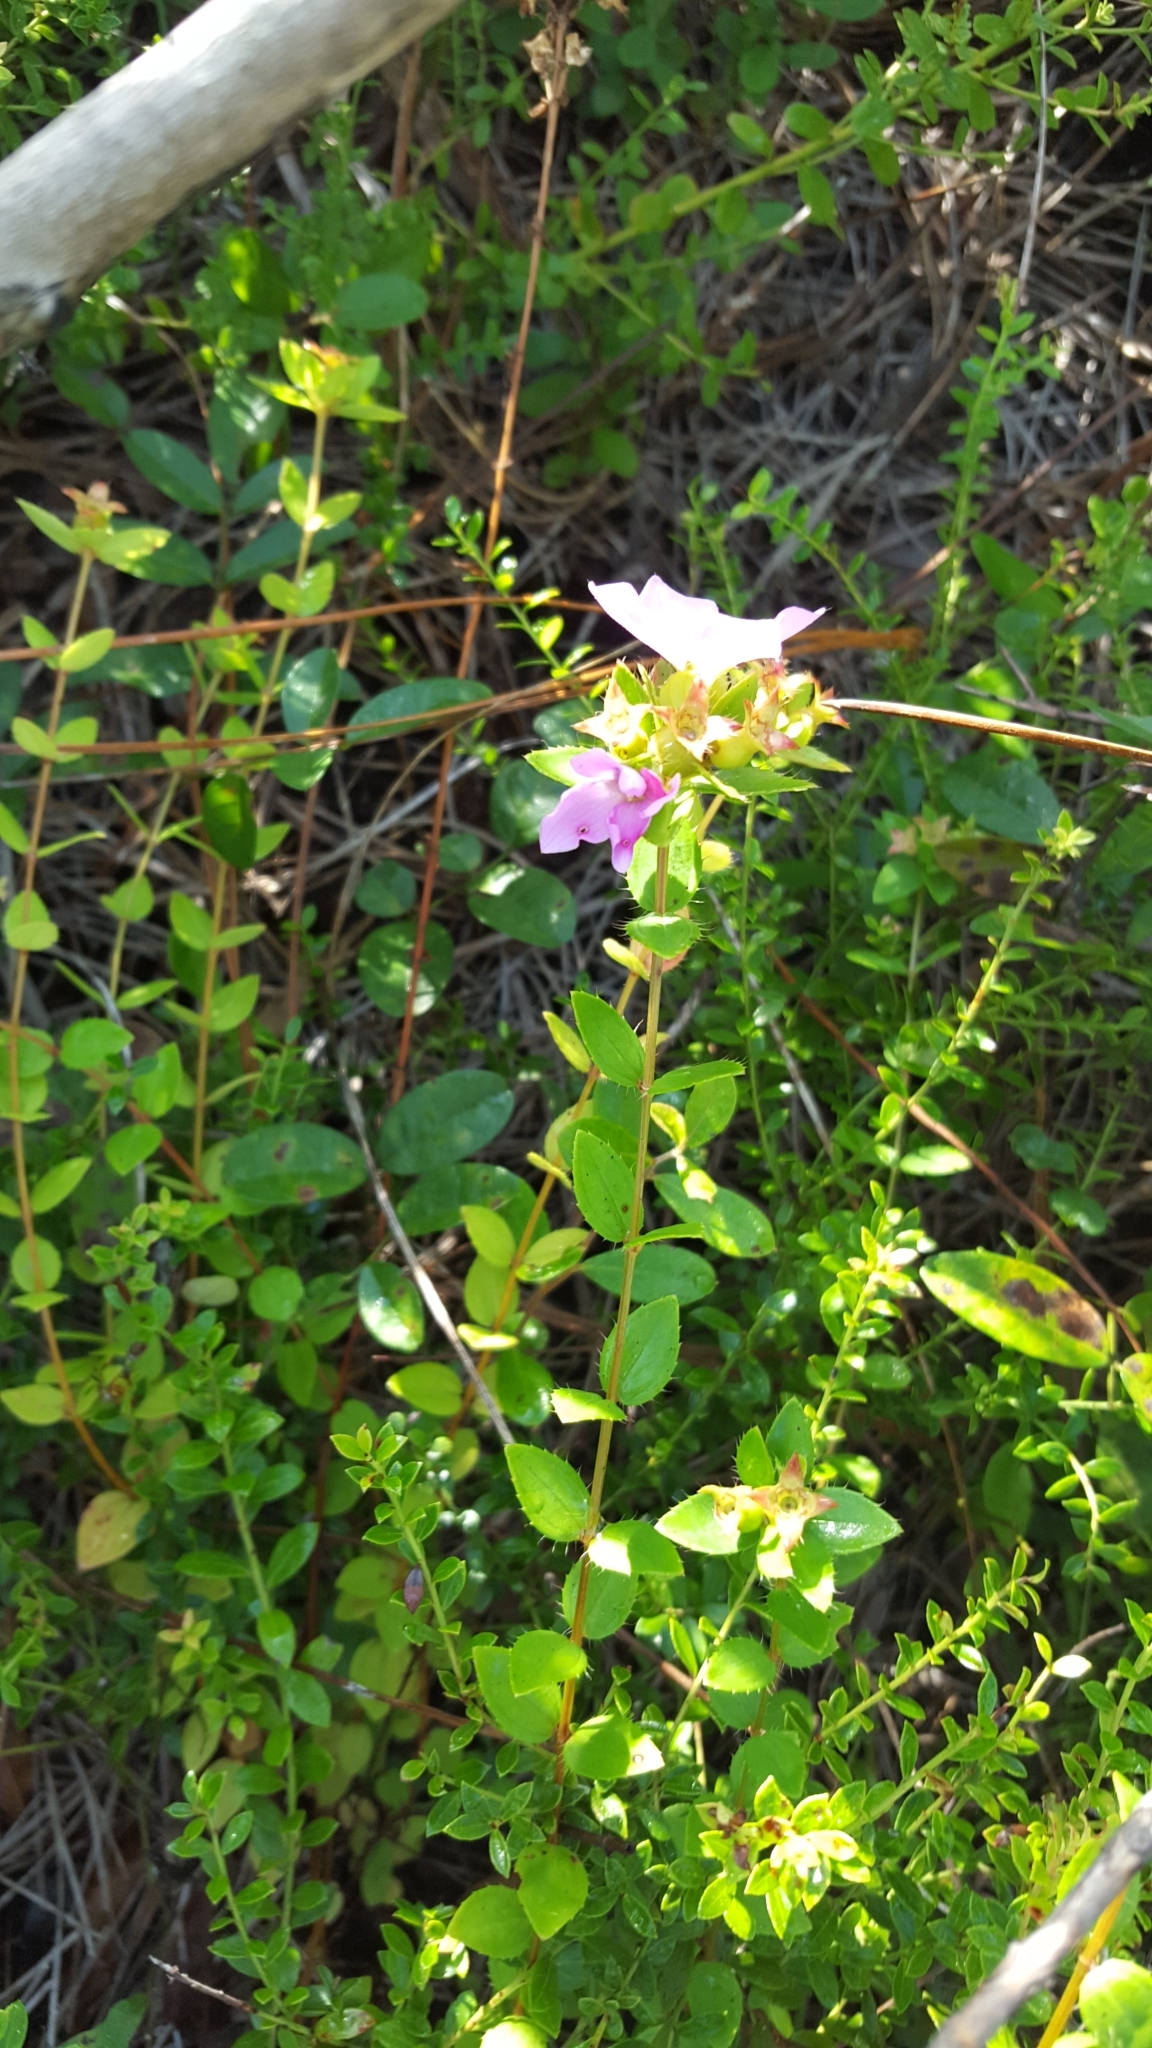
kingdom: Plantae
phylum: Tracheophyta
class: Magnoliopsida
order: Myrtales
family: Melastomataceae
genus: Rhexia
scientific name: Rhexia petiolata
